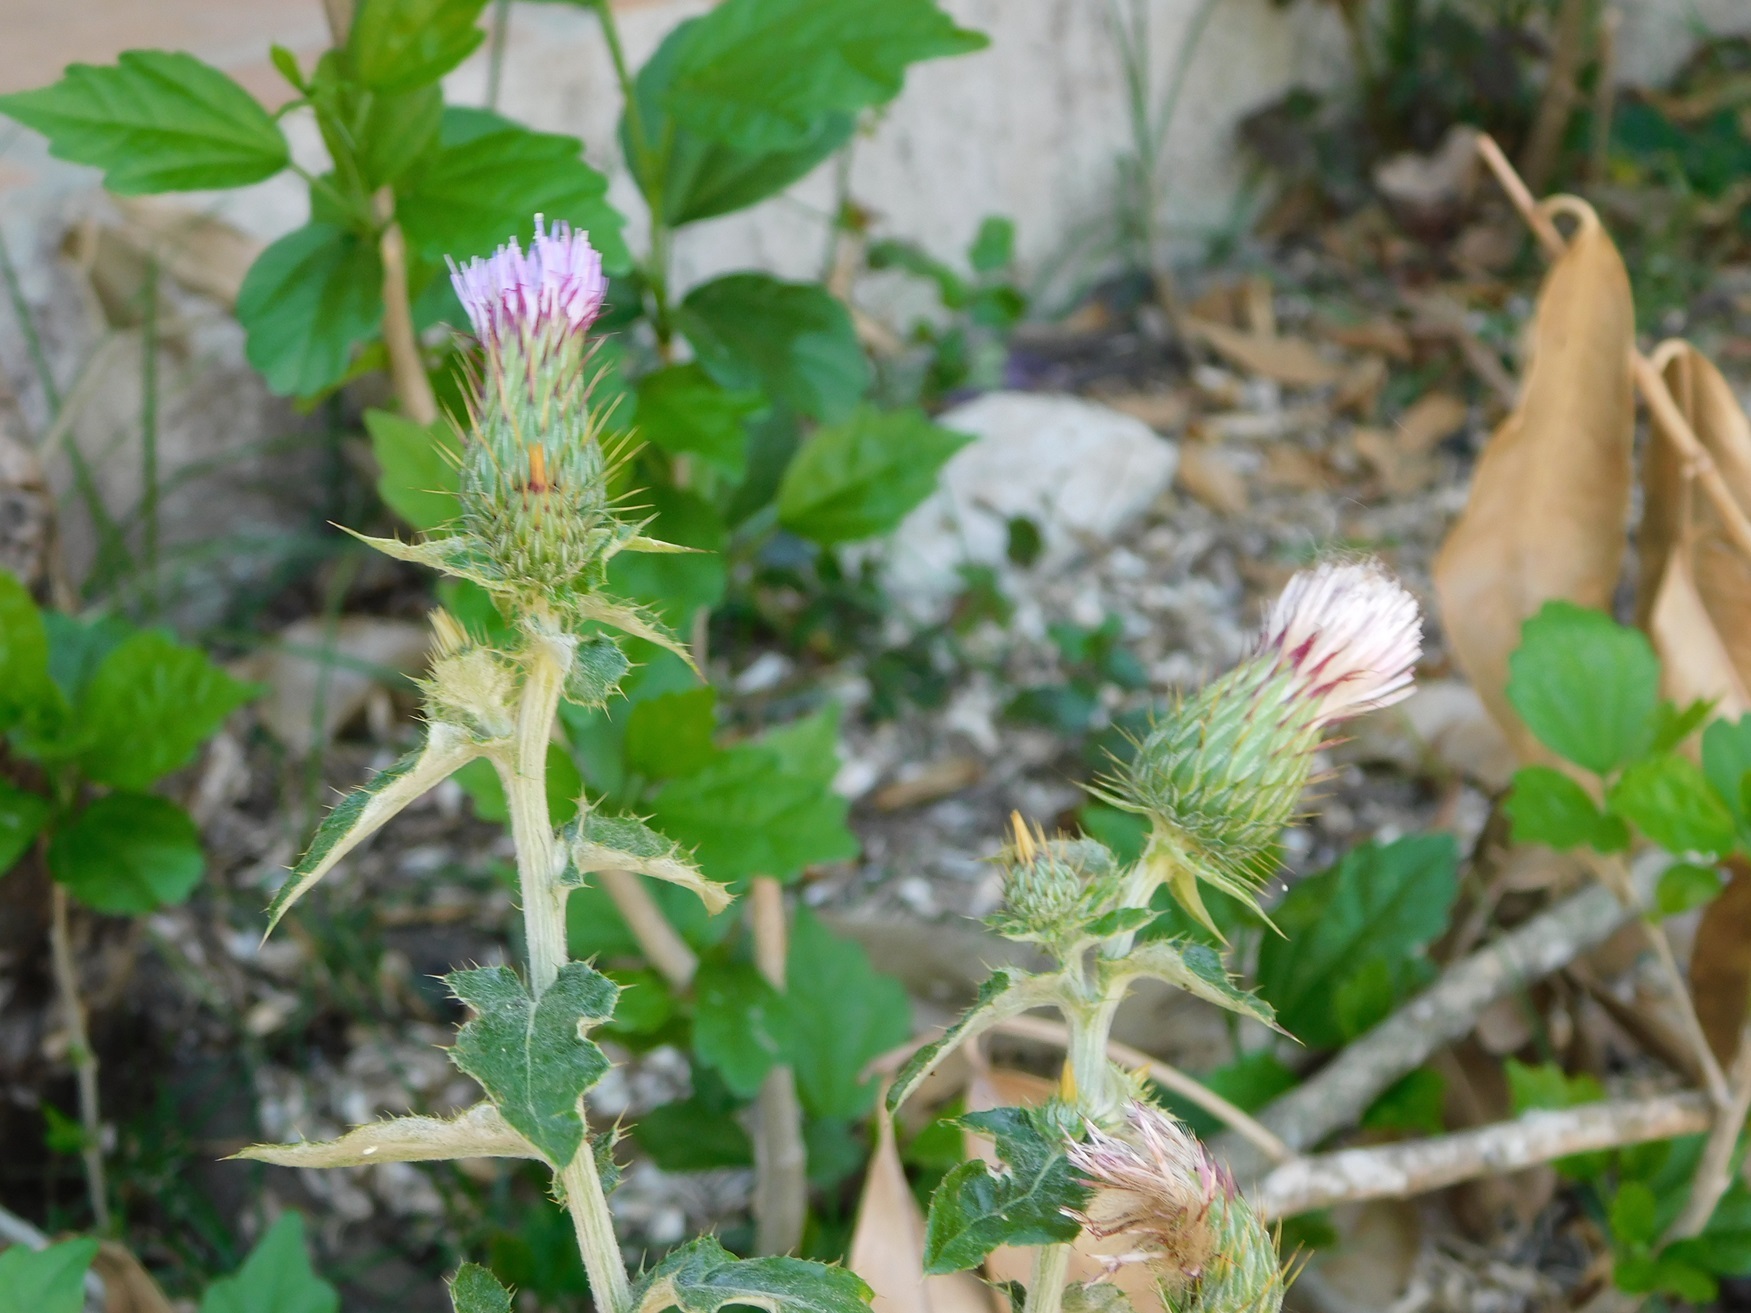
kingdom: Plantae
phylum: Tracheophyta
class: Magnoliopsida
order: Asterales
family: Asteraceae
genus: Cirsium
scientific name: Cirsium mexicanum
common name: Mexican thistle
